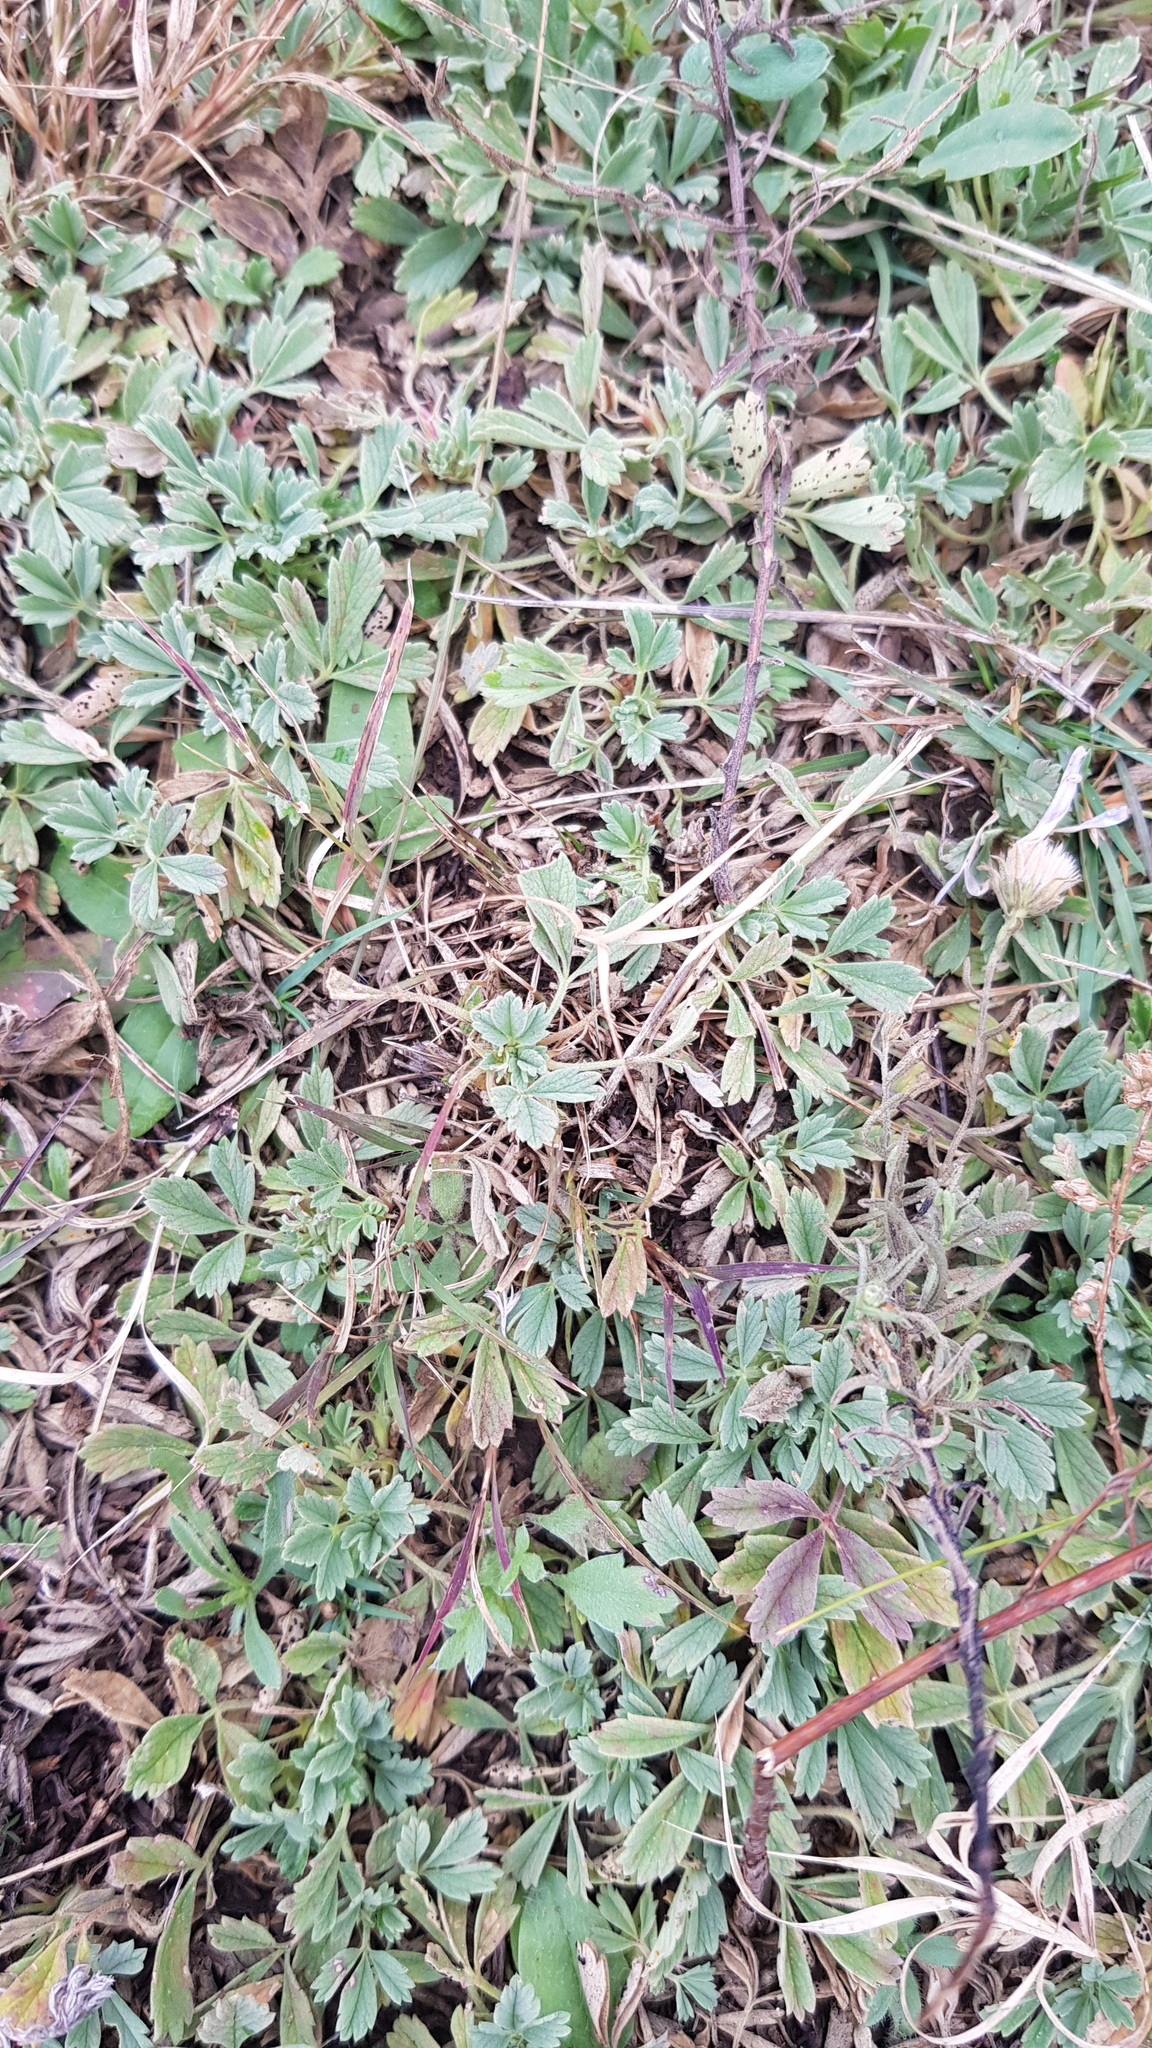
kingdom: Plantae
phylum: Tracheophyta
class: Magnoliopsida
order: Rosales
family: Rosaceae
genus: Potentilla
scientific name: Potentilla acaulis
